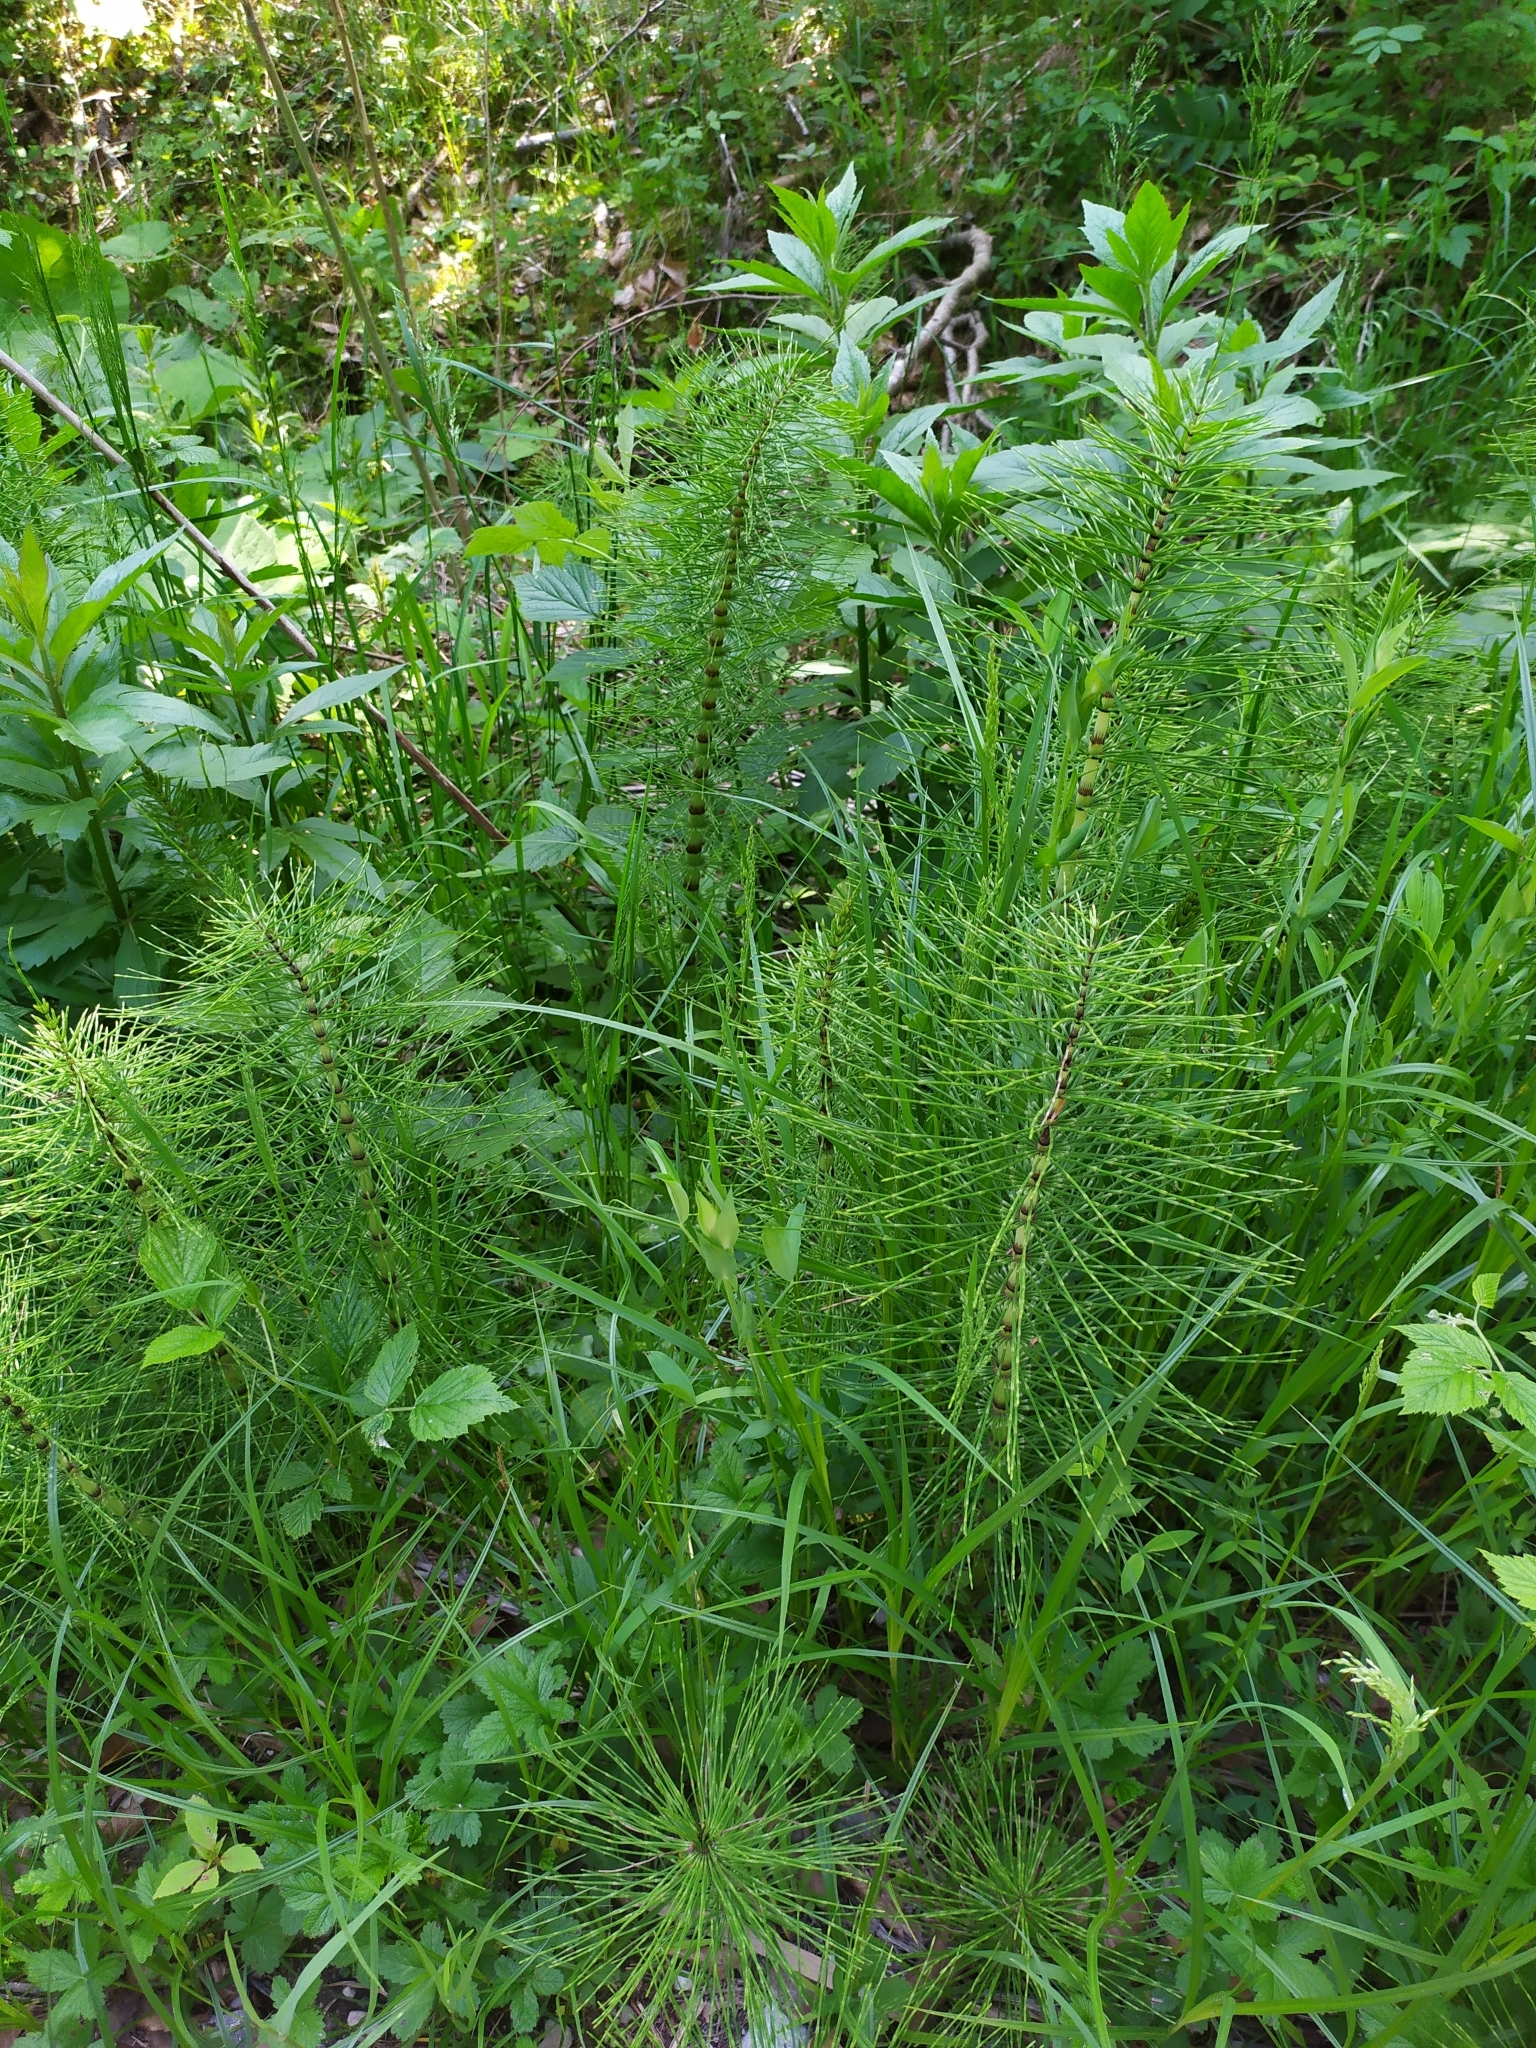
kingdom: Plantae
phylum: Tracheophyta
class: Polypodiopsida
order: Equisetales
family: Equisetaceae
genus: Equisetum
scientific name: Equisetum telmateia
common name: Great horsetail
